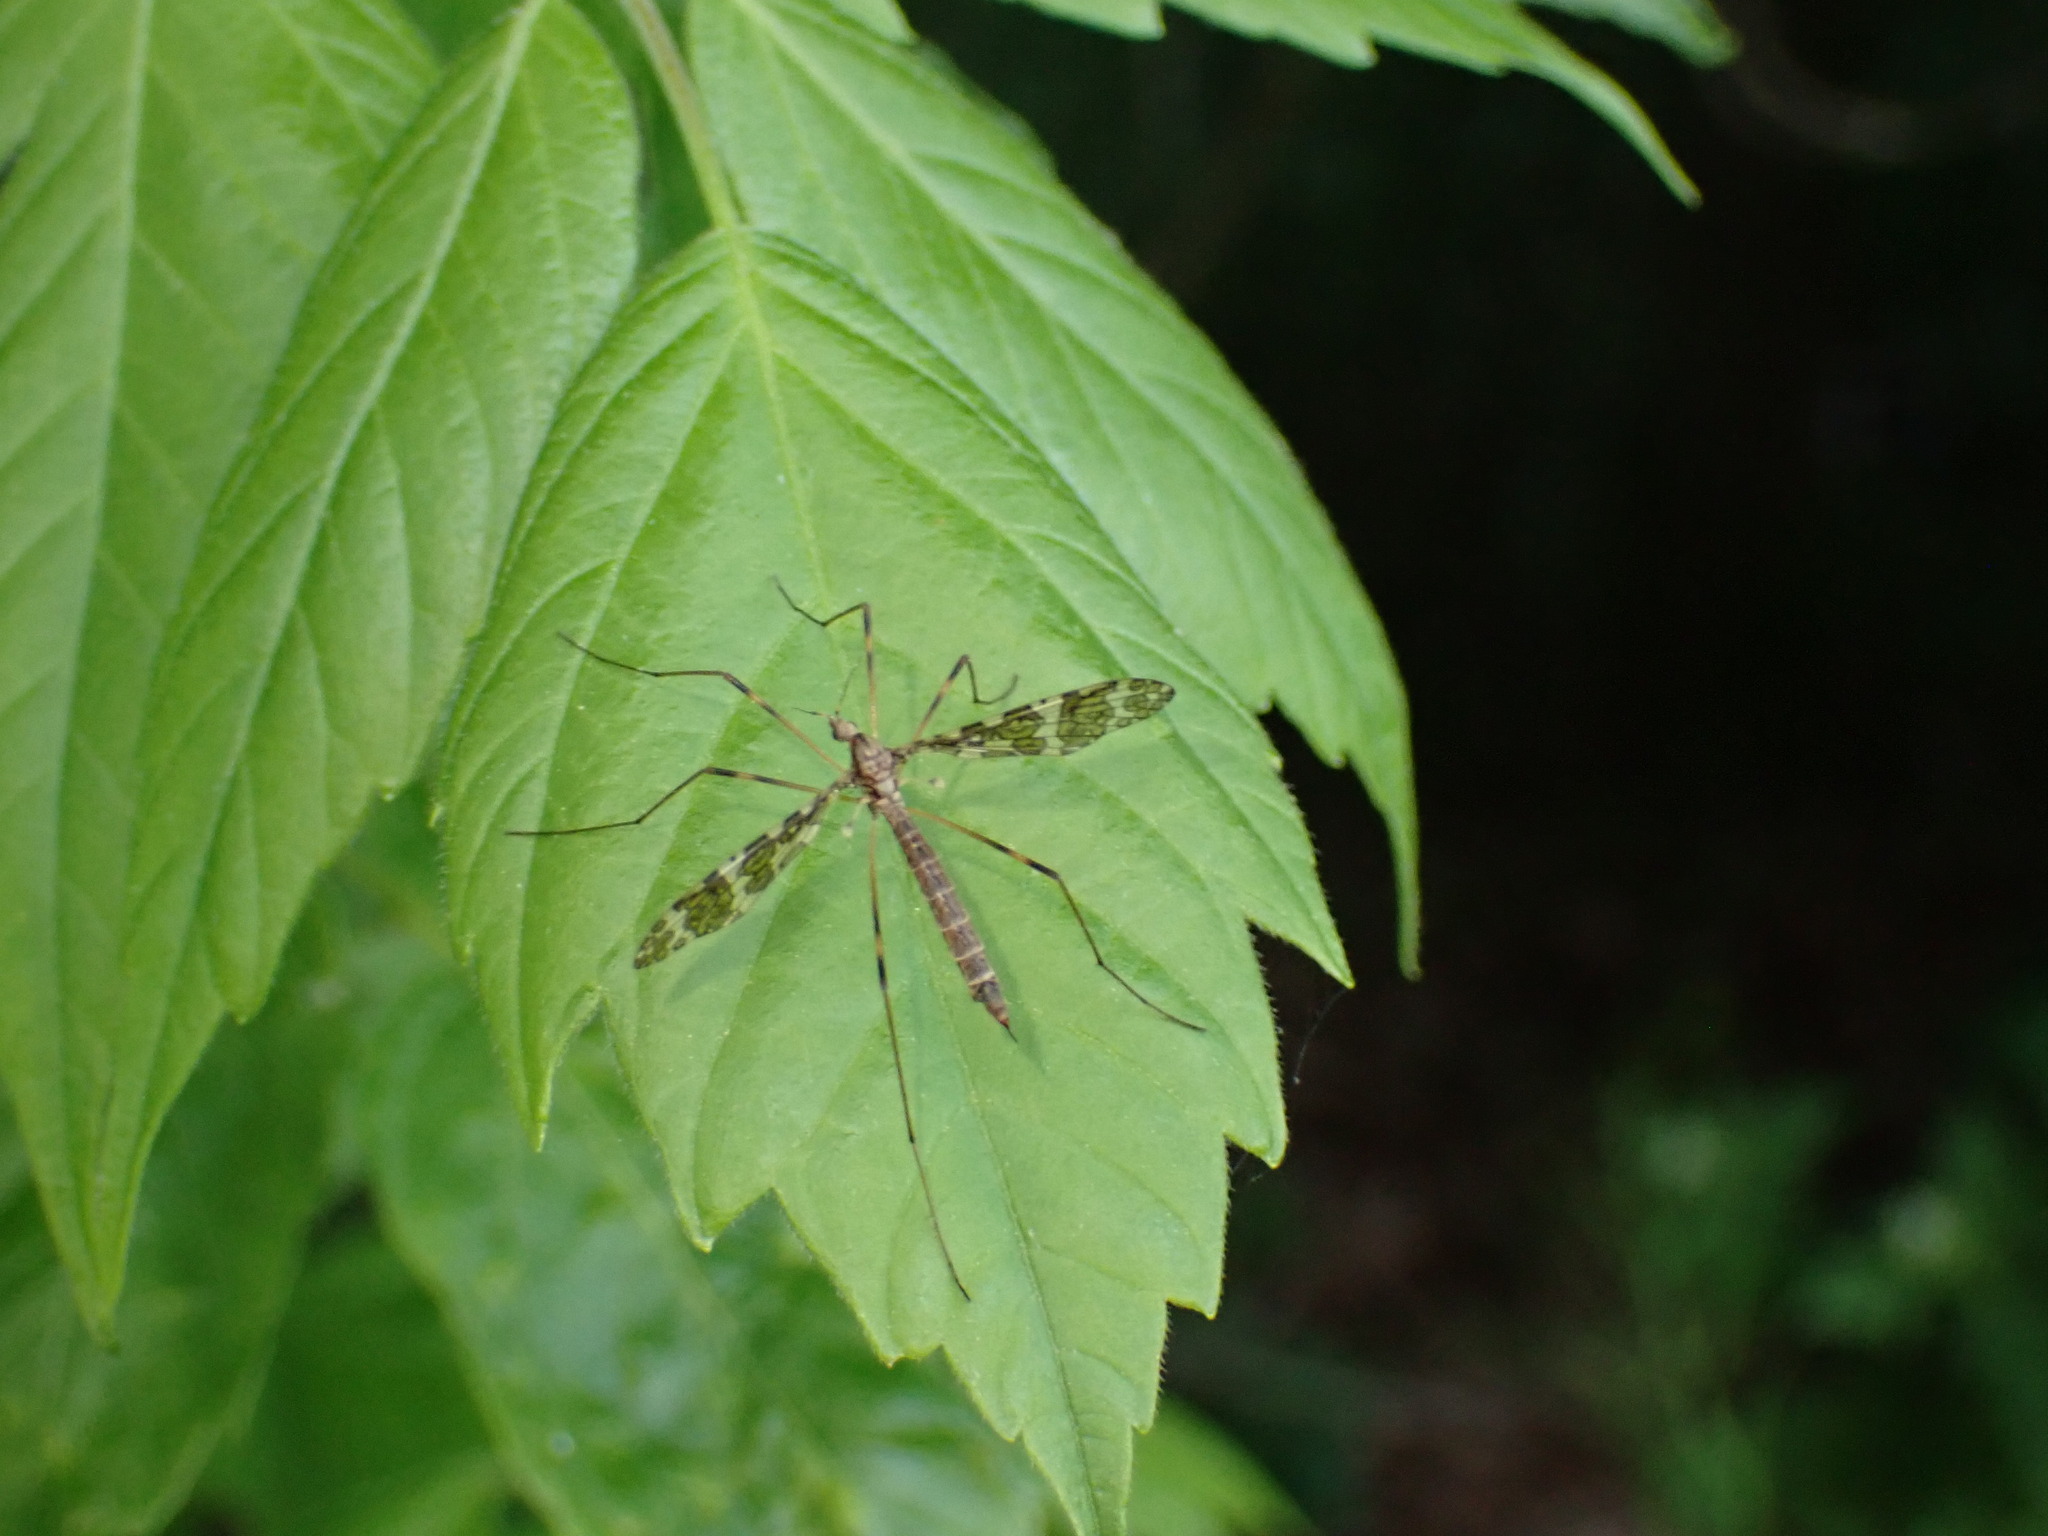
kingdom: Animalia
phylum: Arthropoda
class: Insecta
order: Diptera
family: Limoniidae
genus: Epiphragma
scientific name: Epiphragma fasciapenne
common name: Band-winged crane fly
